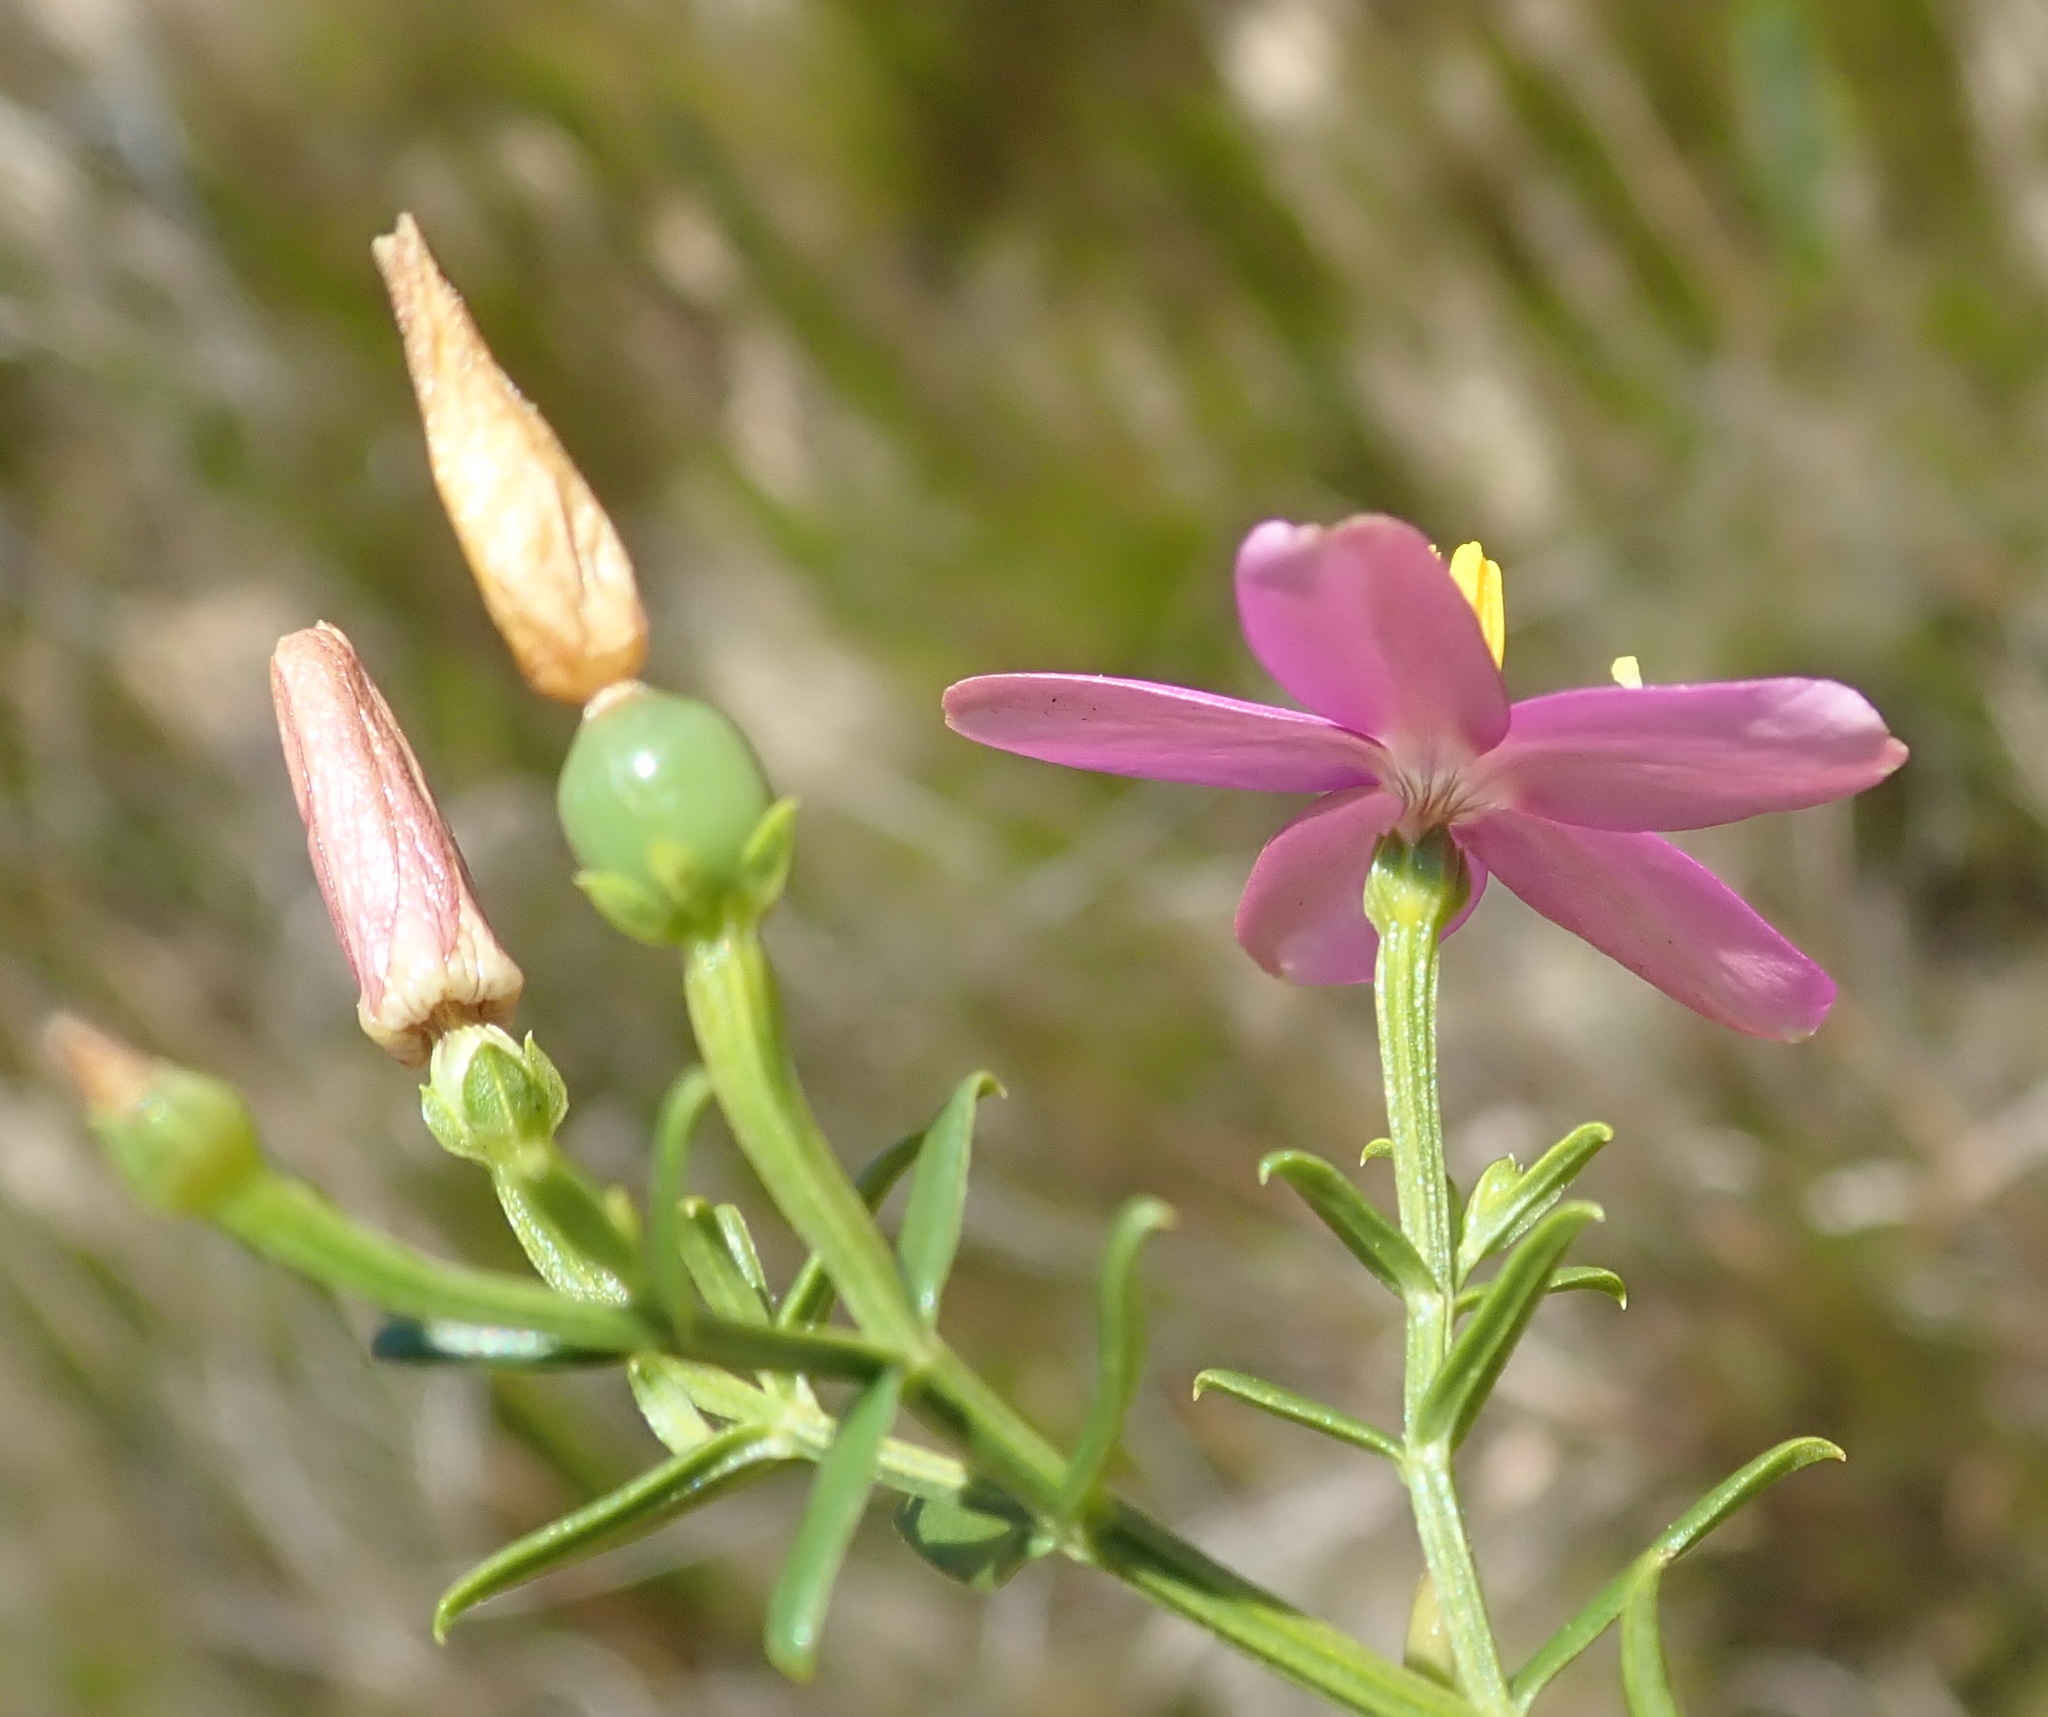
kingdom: Plantae
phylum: Tracheophyta
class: Magnoliopsida
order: Gentianales
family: Gentianaceae
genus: Chironia
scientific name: Chironia baccifera
